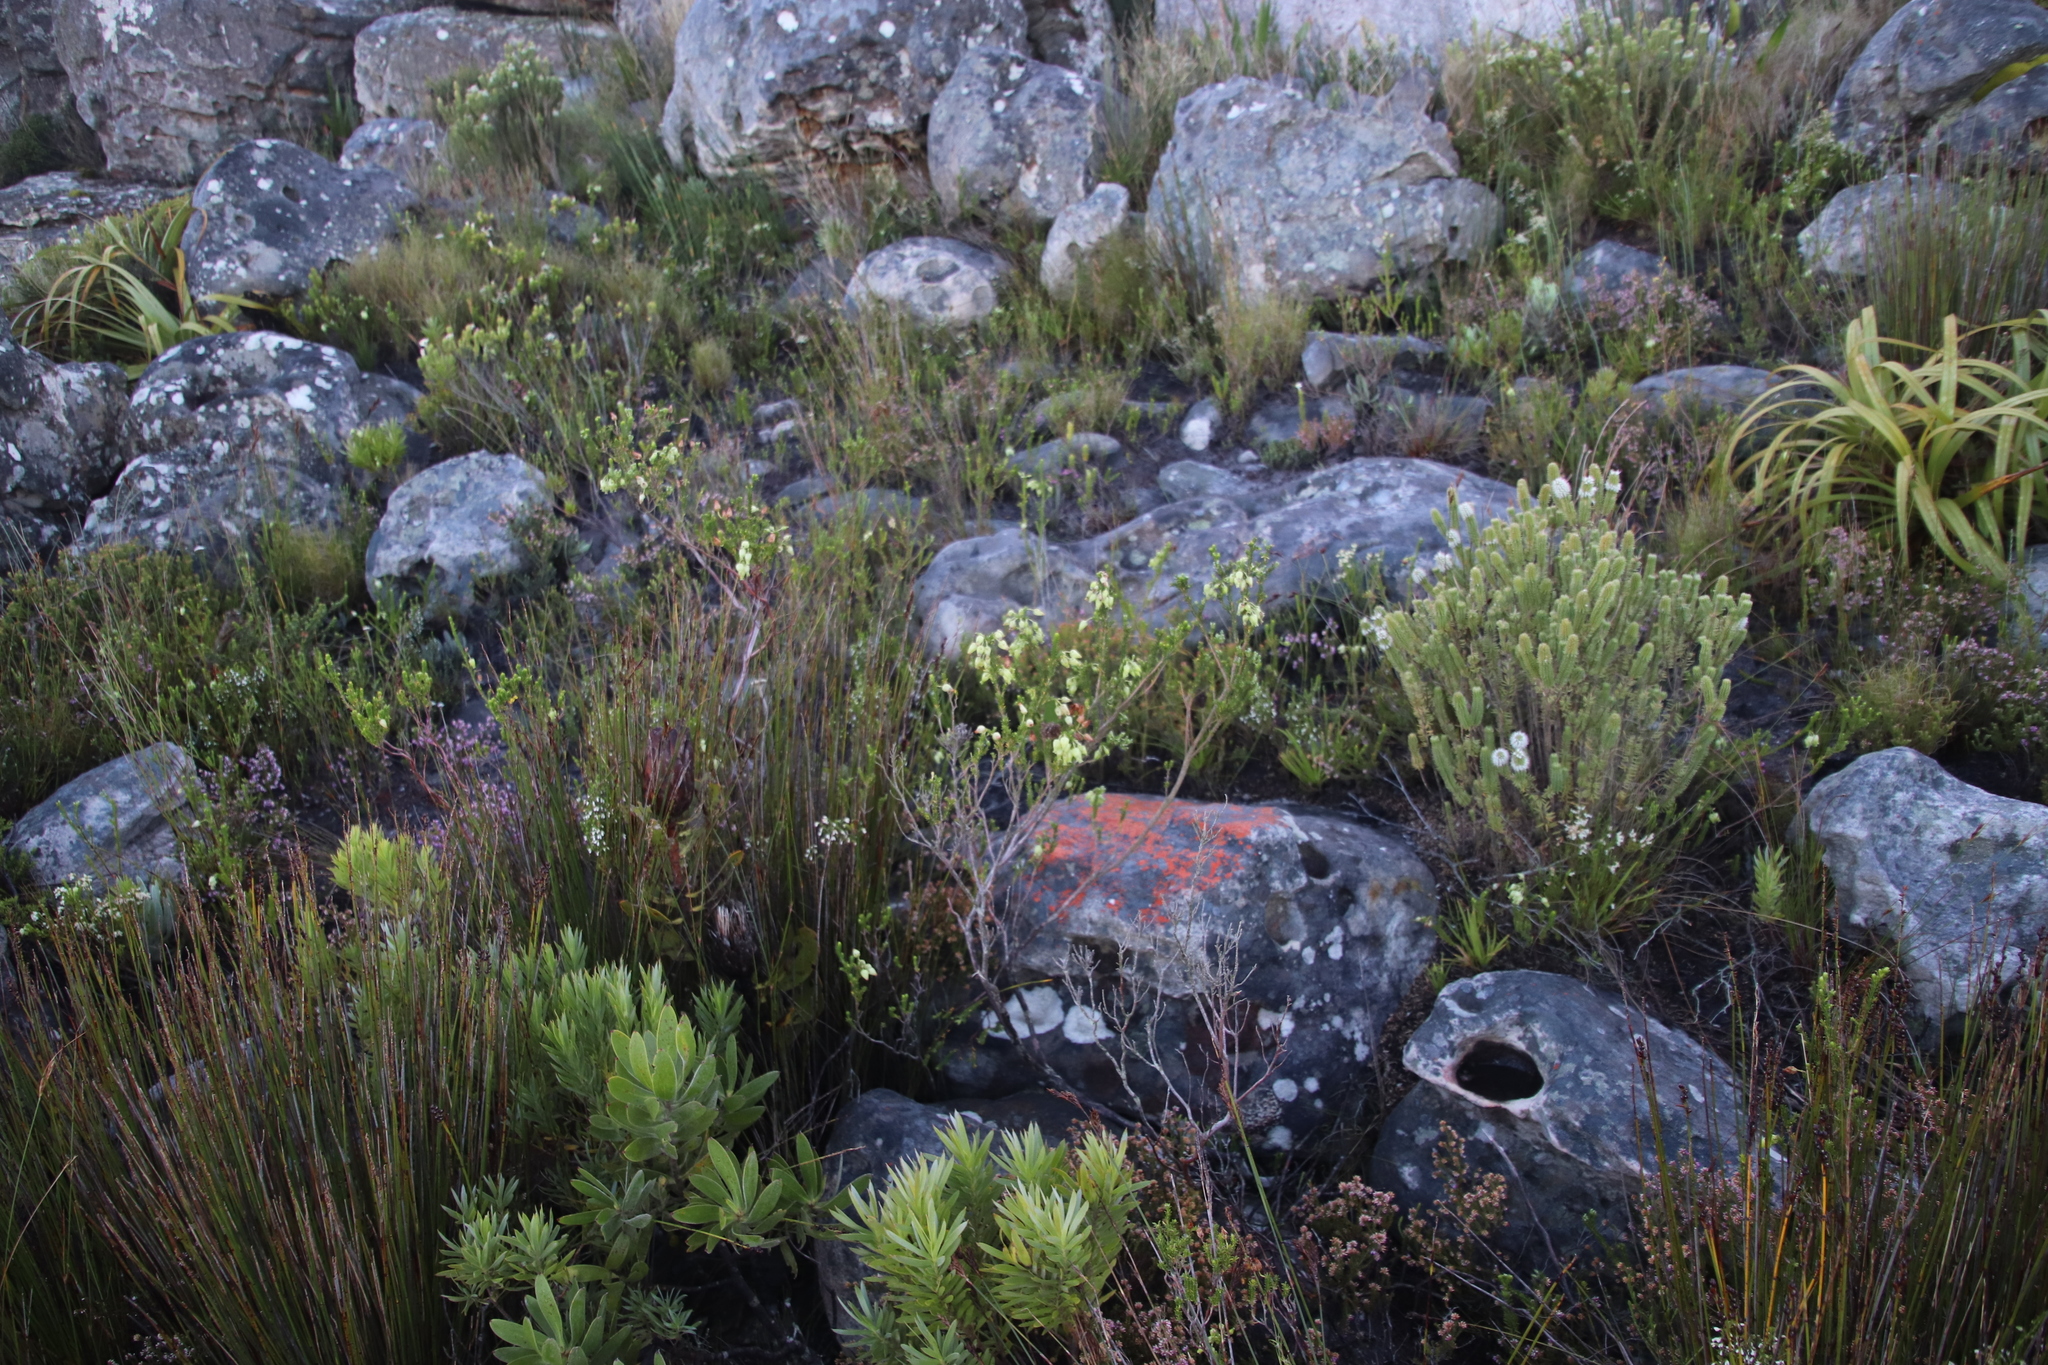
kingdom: Plantae
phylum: Tracheophyta
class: Magnoliopsida
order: Ericales
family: Ericaceae
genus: Erica
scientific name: Erica urna-viridis
